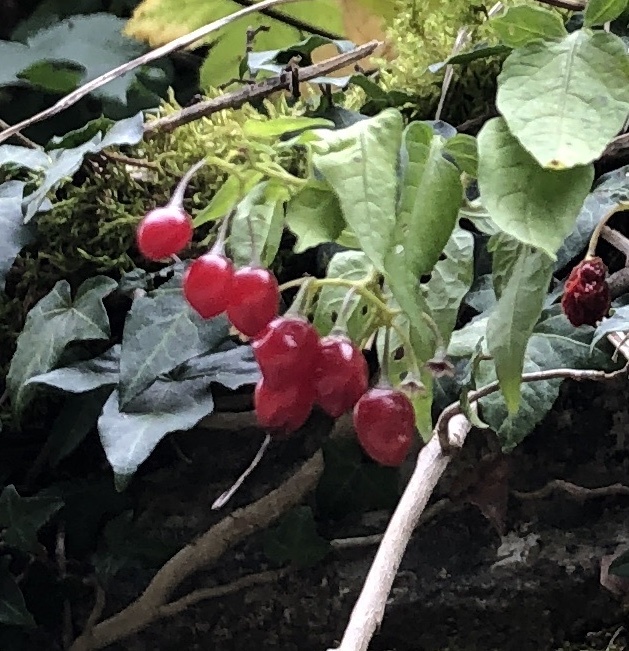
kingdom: Plantae
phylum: Tracheophyta
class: Magnoliopsida
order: Solanales
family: Solanaceae
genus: Solanum
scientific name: Solanum dulcamara
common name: Climbing nightshade
